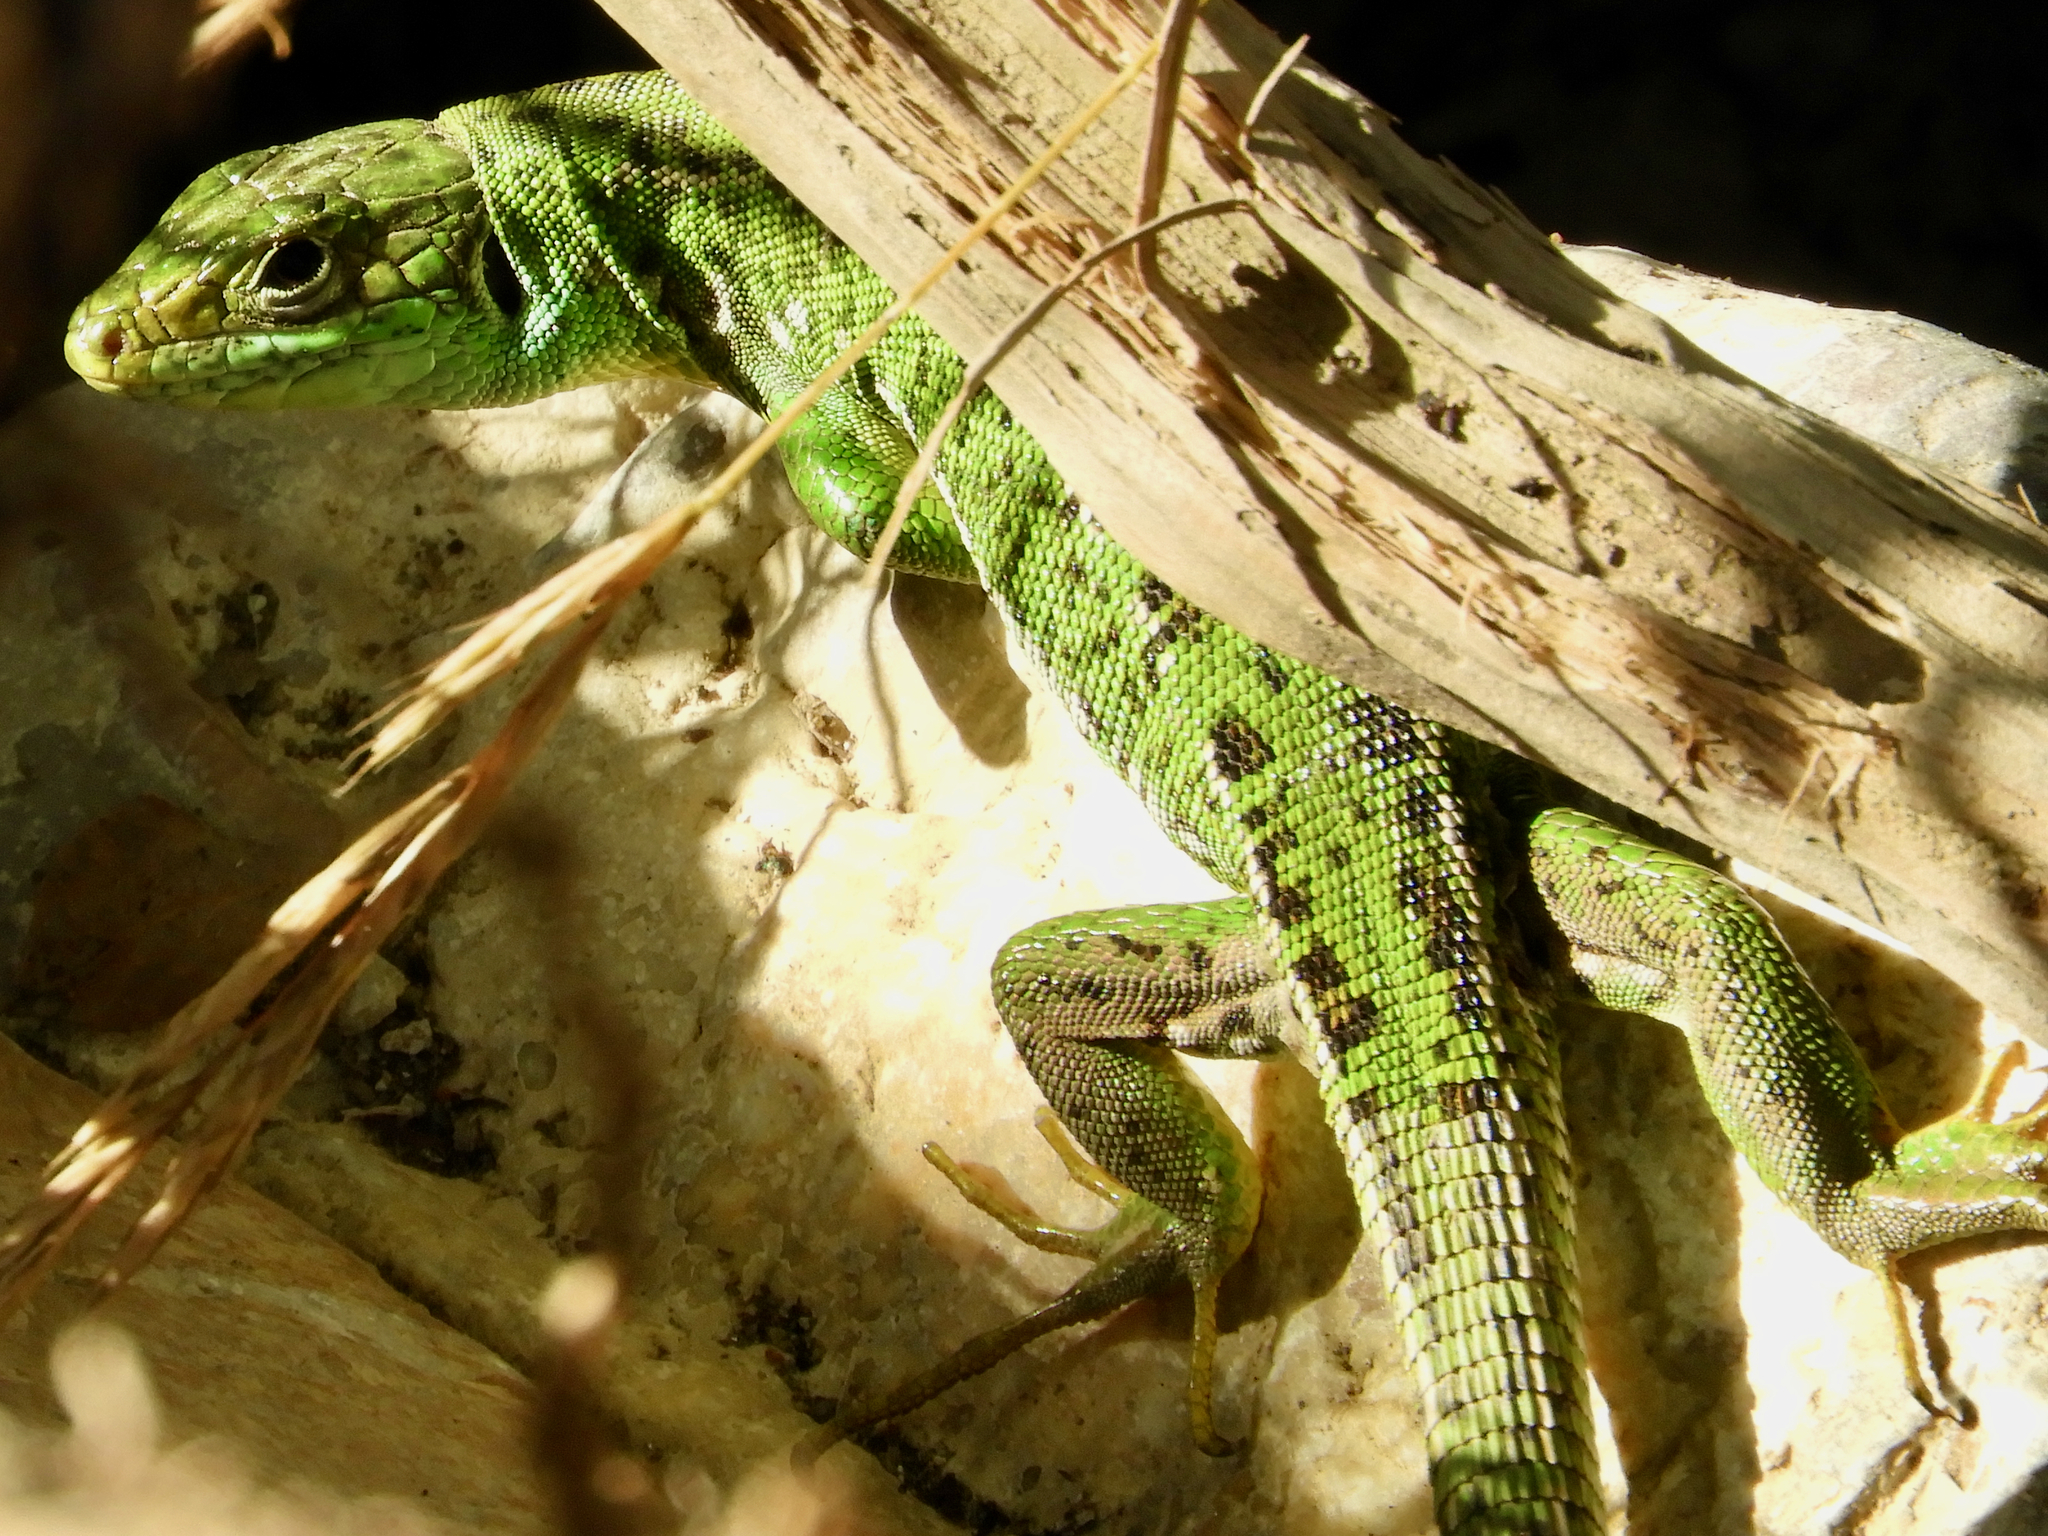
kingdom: Animalia
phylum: Chordata
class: Squamata
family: Lacertidae
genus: Lacerta
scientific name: Lacerta bilineata
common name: Western green lizard
